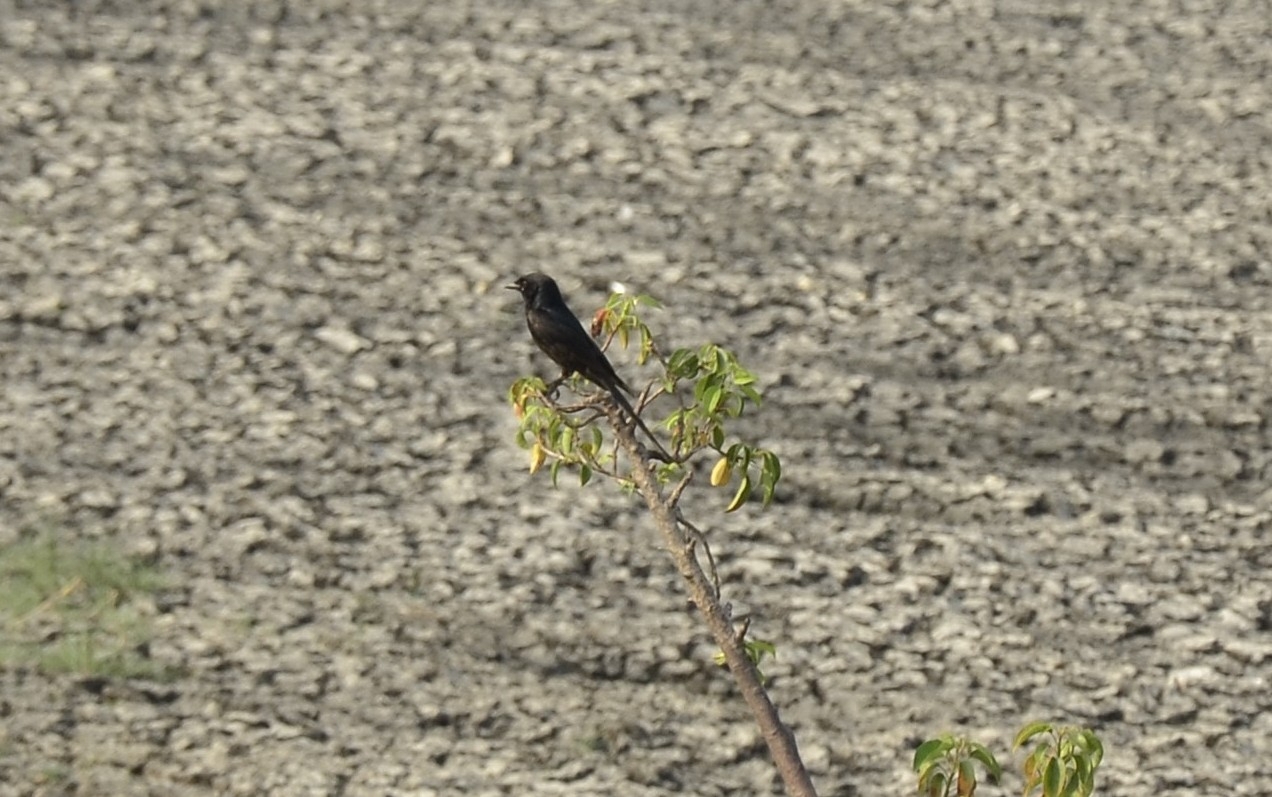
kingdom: Animalia
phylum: Chordata
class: Aves
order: Passeriformes
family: Dicruridae
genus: Dicrurus
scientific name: Dicrurus macrocercus
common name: Black drongo
